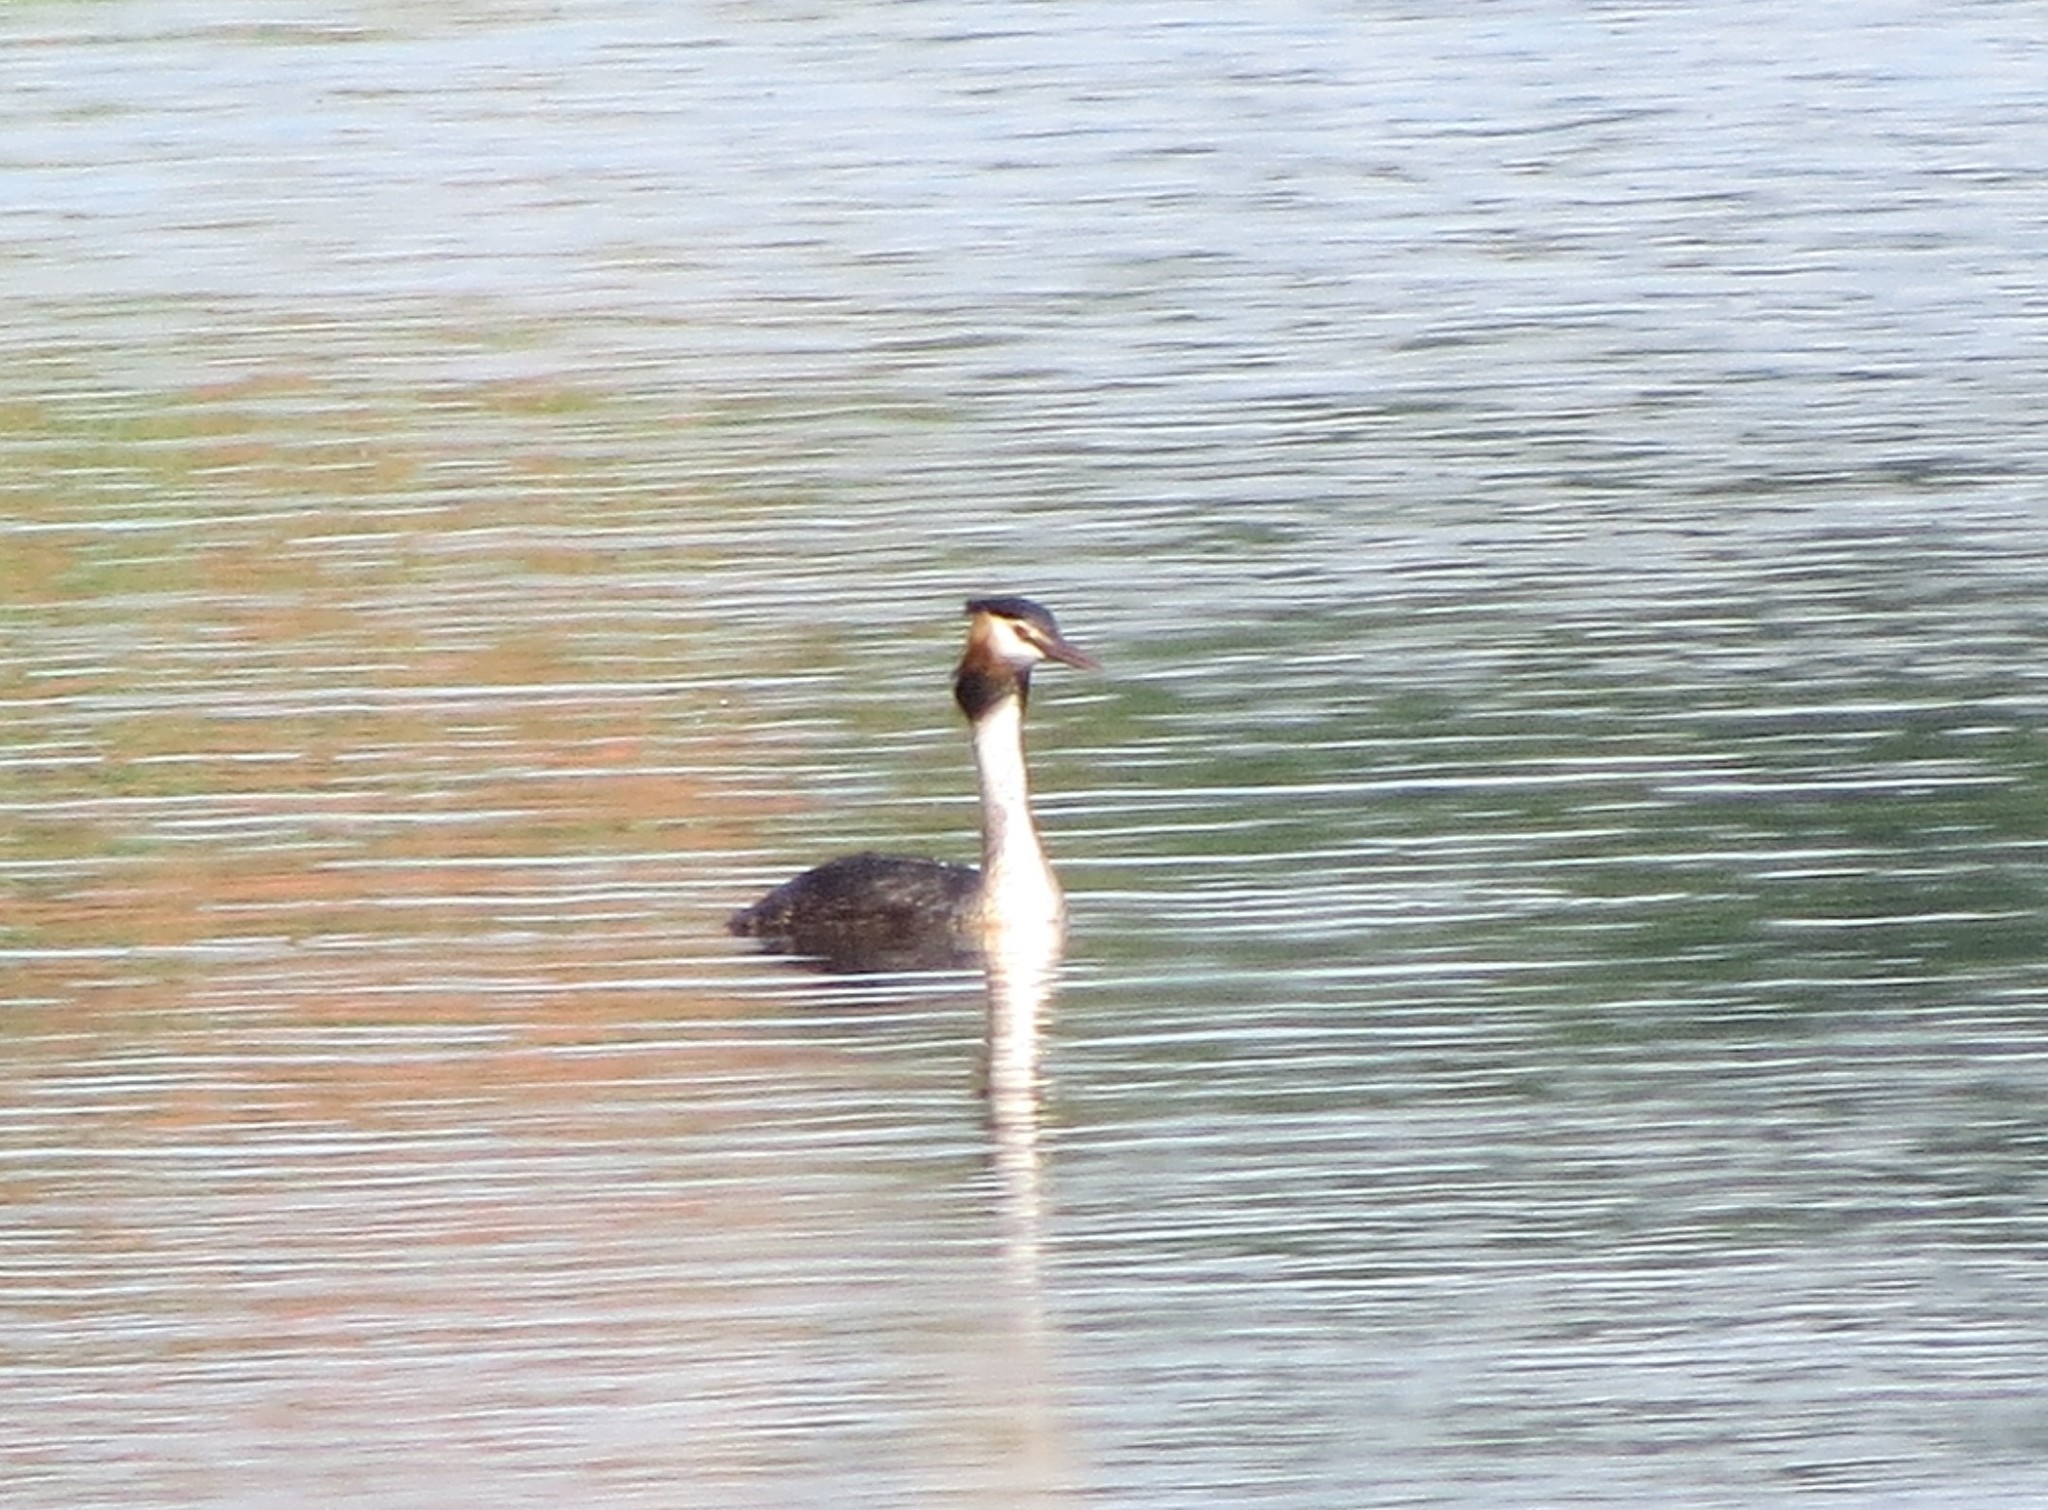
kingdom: Animalia
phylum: Chordata
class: Aves
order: Podicipediformes
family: Podicipedidae
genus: Podiceps
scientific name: Podiceps cristatus
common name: Great crested grebe
